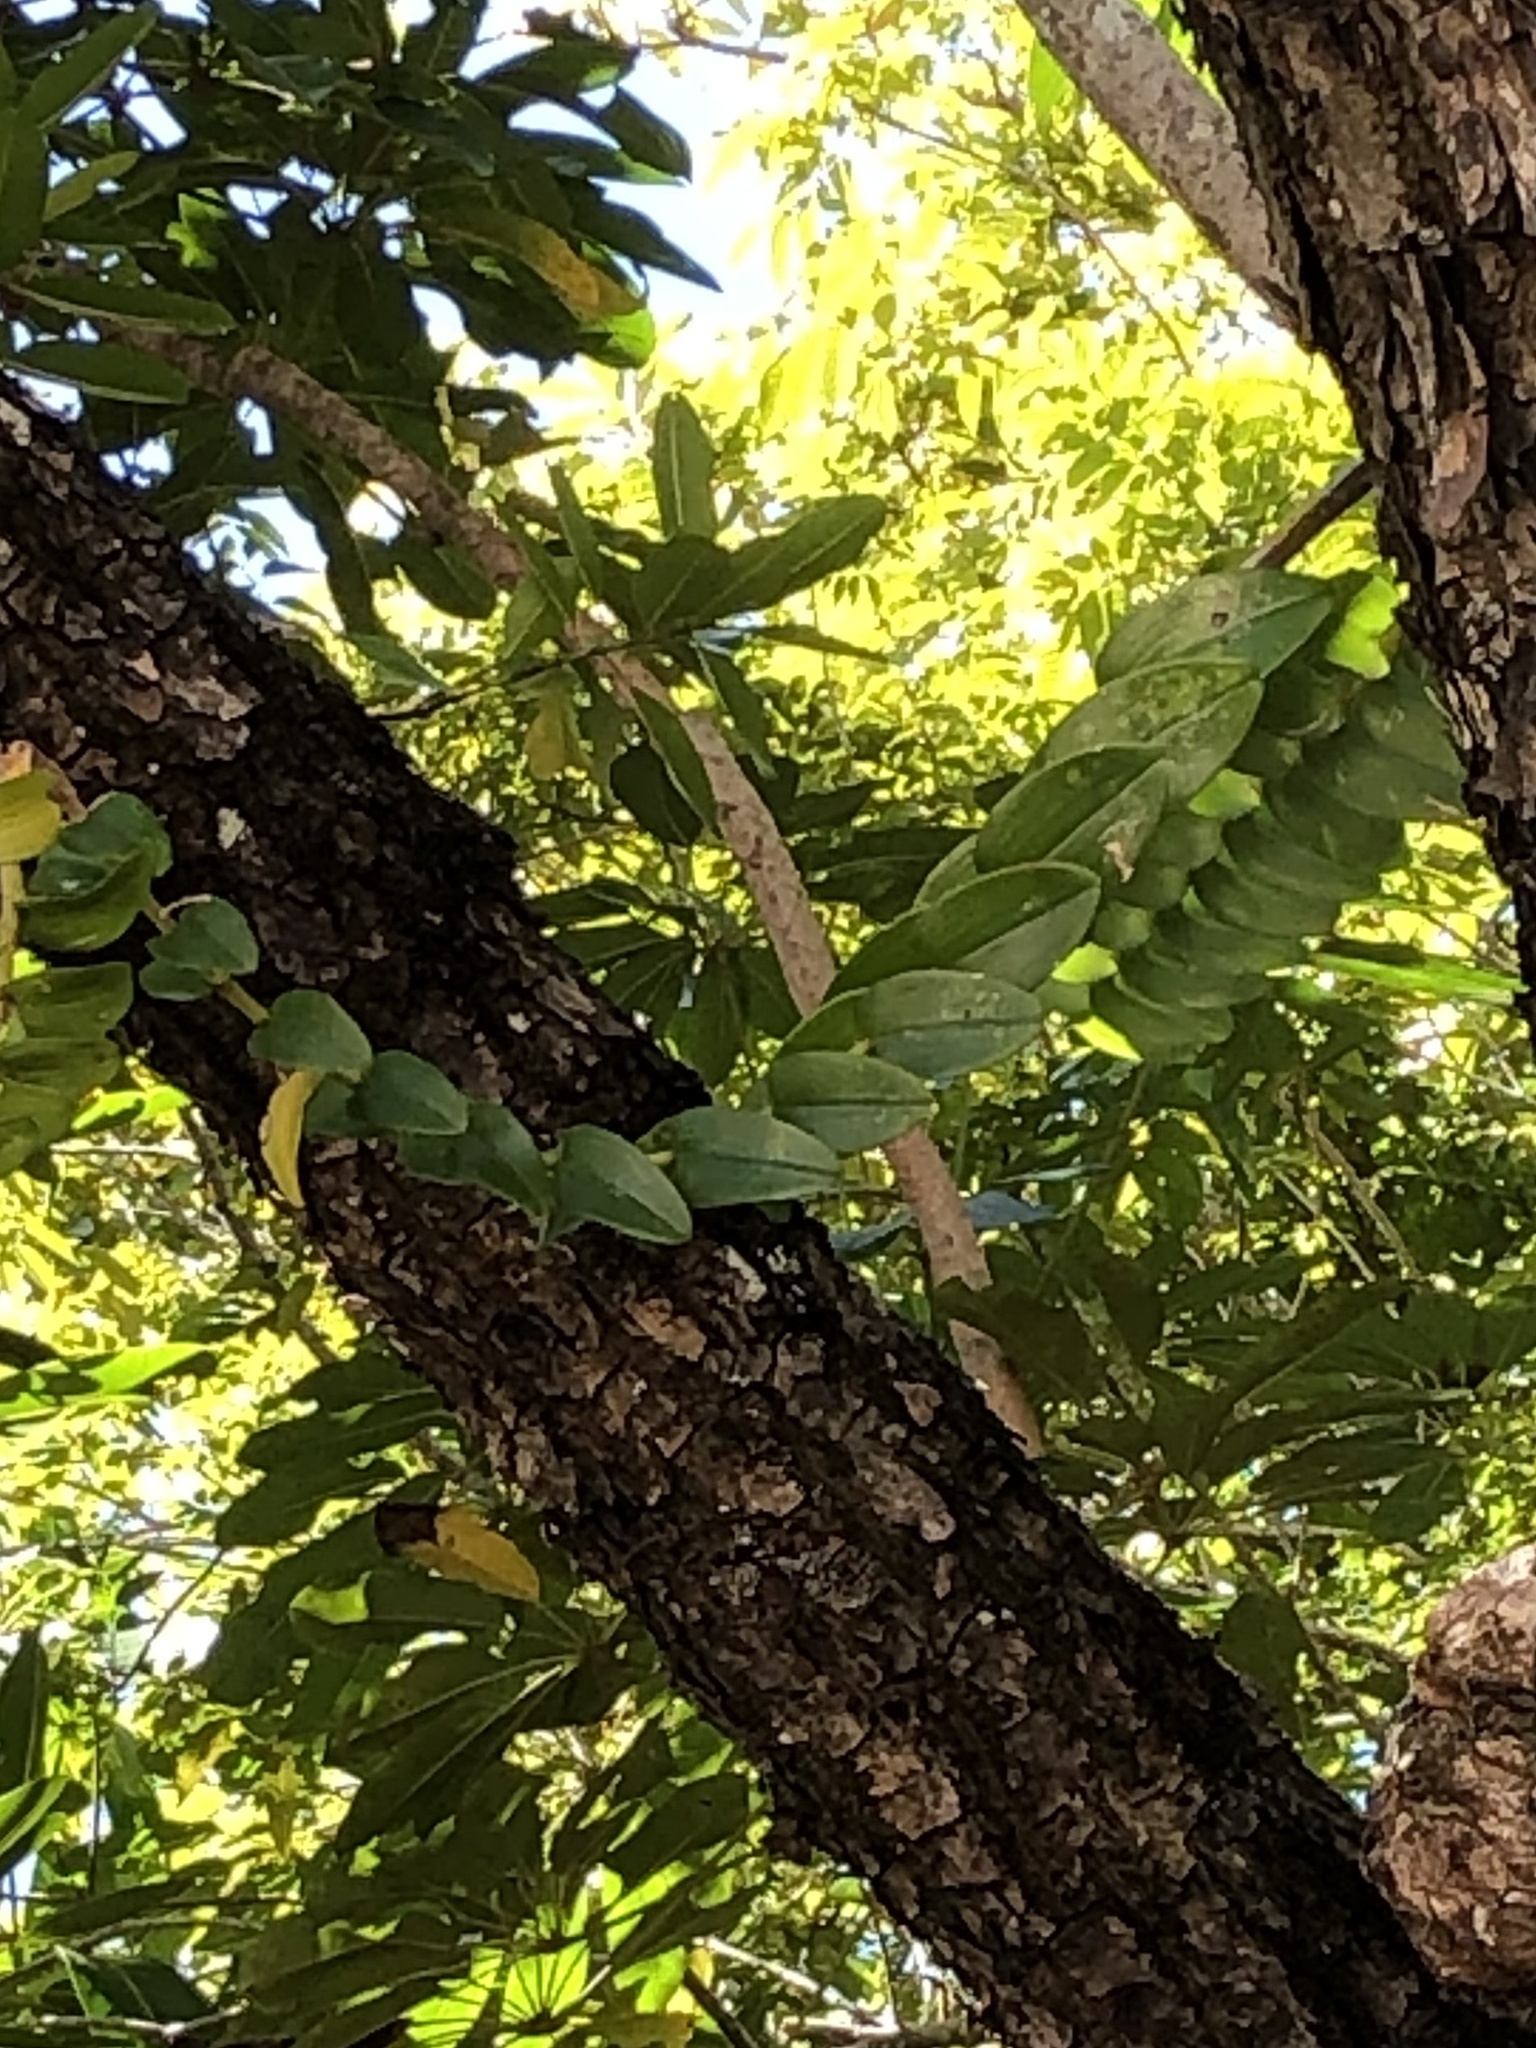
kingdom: Plantae
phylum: Tracheophyta
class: Liliopsida
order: Asparagales
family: Orchidaceae
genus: Dendrobium
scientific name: Dendrobium discolor
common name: Golden antler orchid
